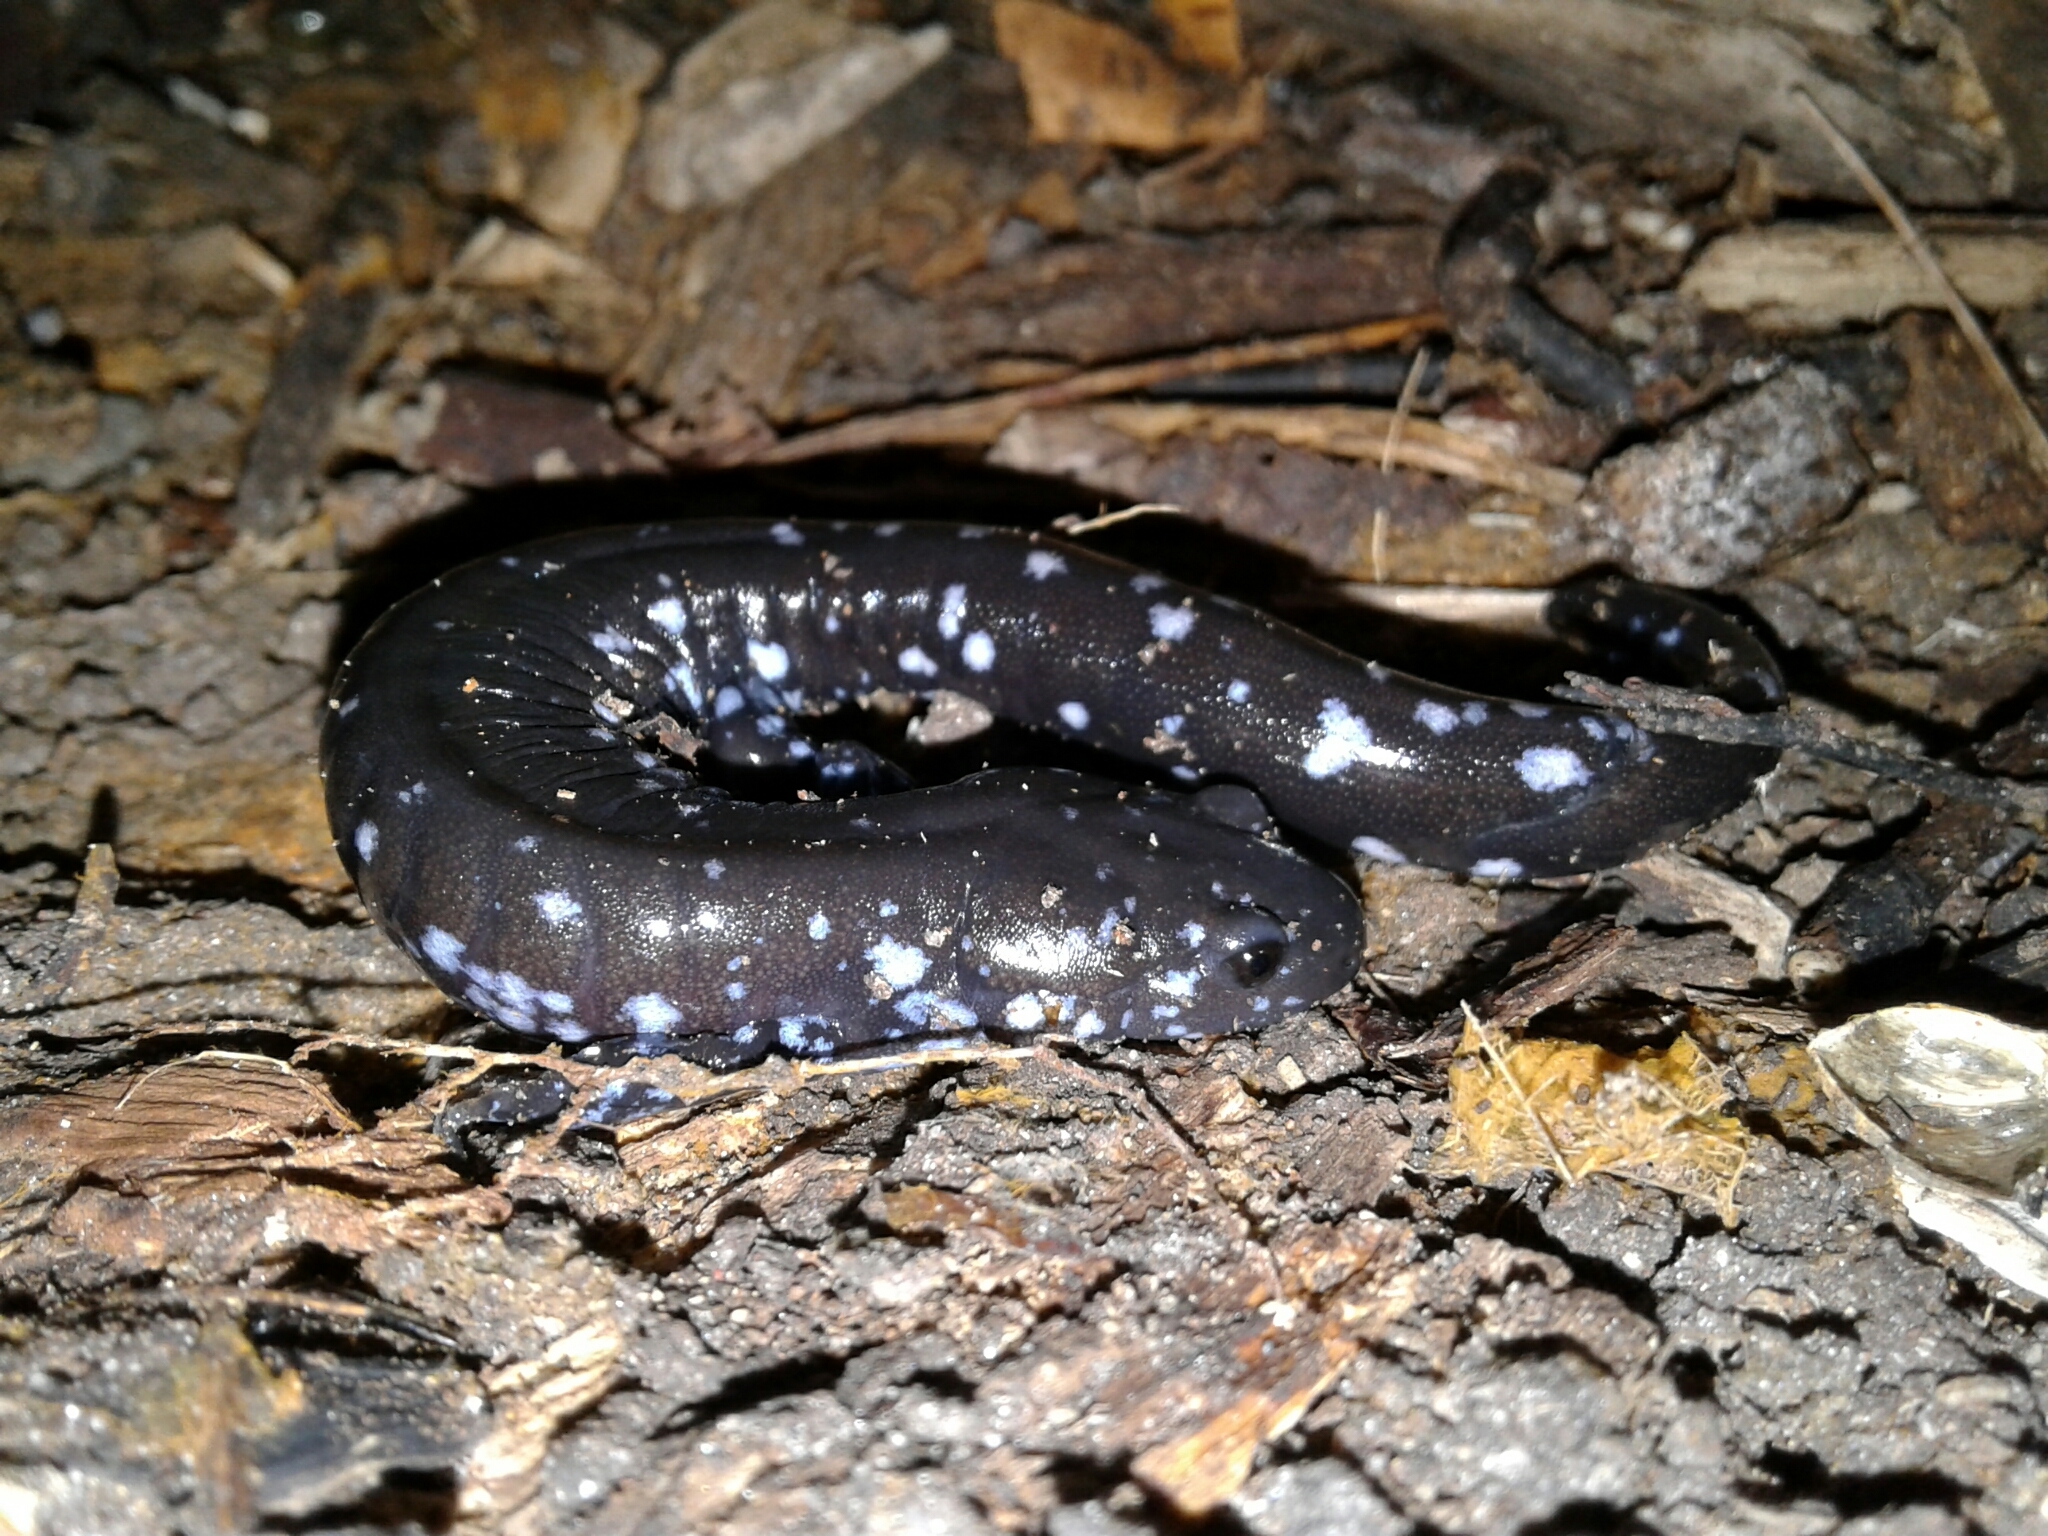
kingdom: Animalia
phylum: Chordata
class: Amphibia
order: Caudata
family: Ambystomatidae
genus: Ambystoma
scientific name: Ambystoma laterale
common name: Blue-spotted salamander
